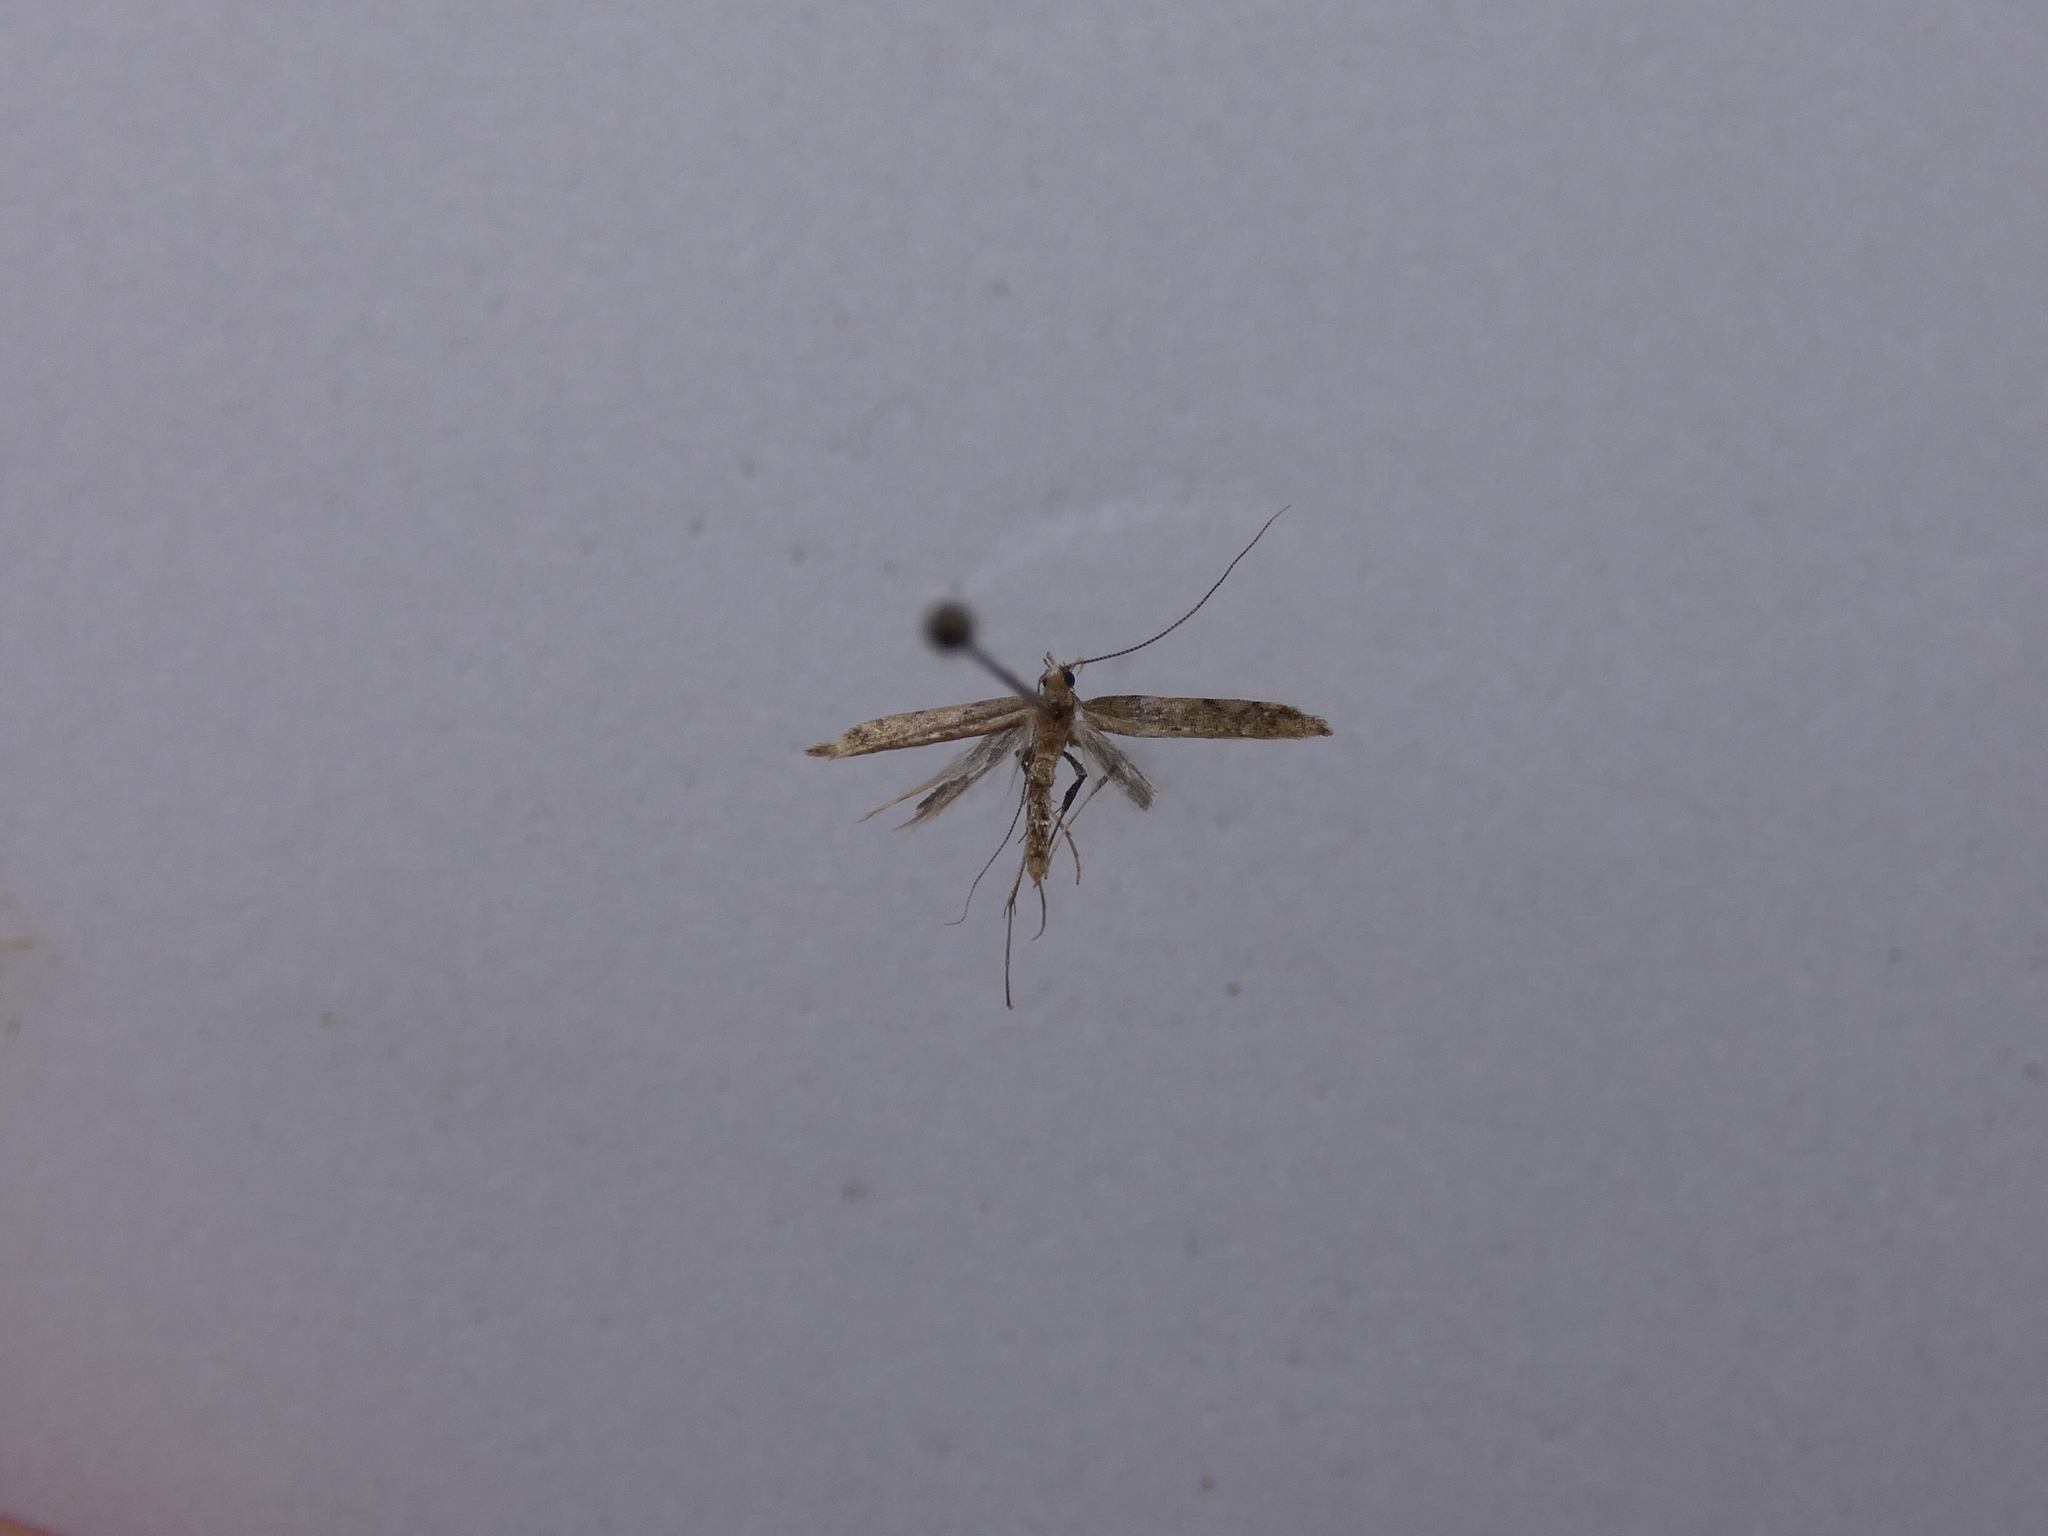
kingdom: Animalia
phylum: Arthropoda
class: Insecta
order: Lepidoptera
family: Elachistidae
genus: Microcolona
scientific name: Microcolona limodes
